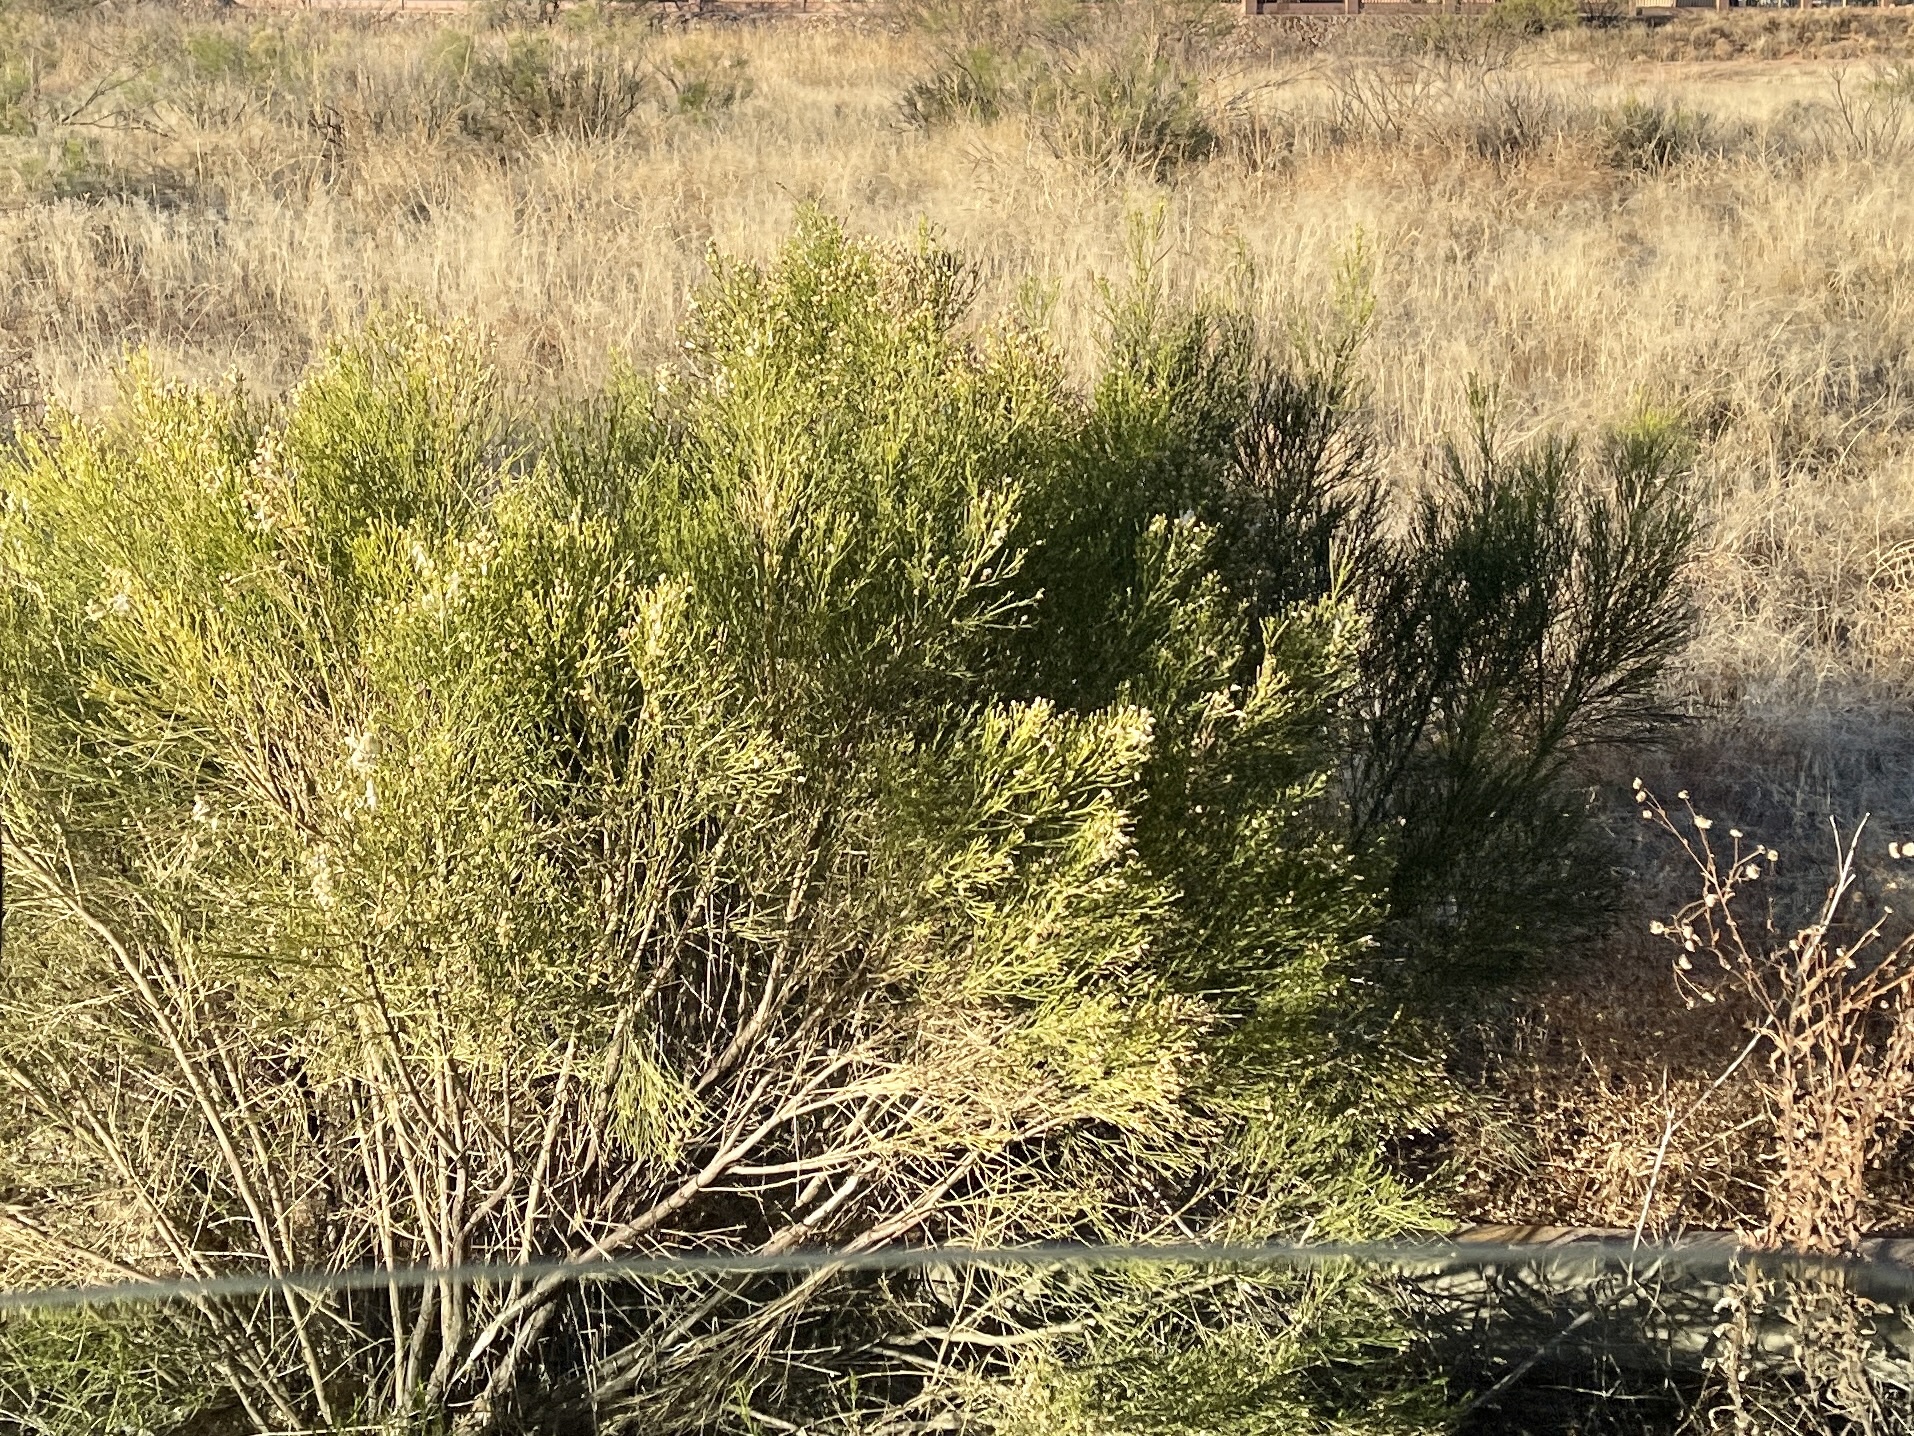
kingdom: Plantae
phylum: Tracheophyta
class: Magnoliopsida
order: Asterales
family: Asteraceae
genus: Baccharis
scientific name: Baccharis sarothroides
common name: Desert-broom
